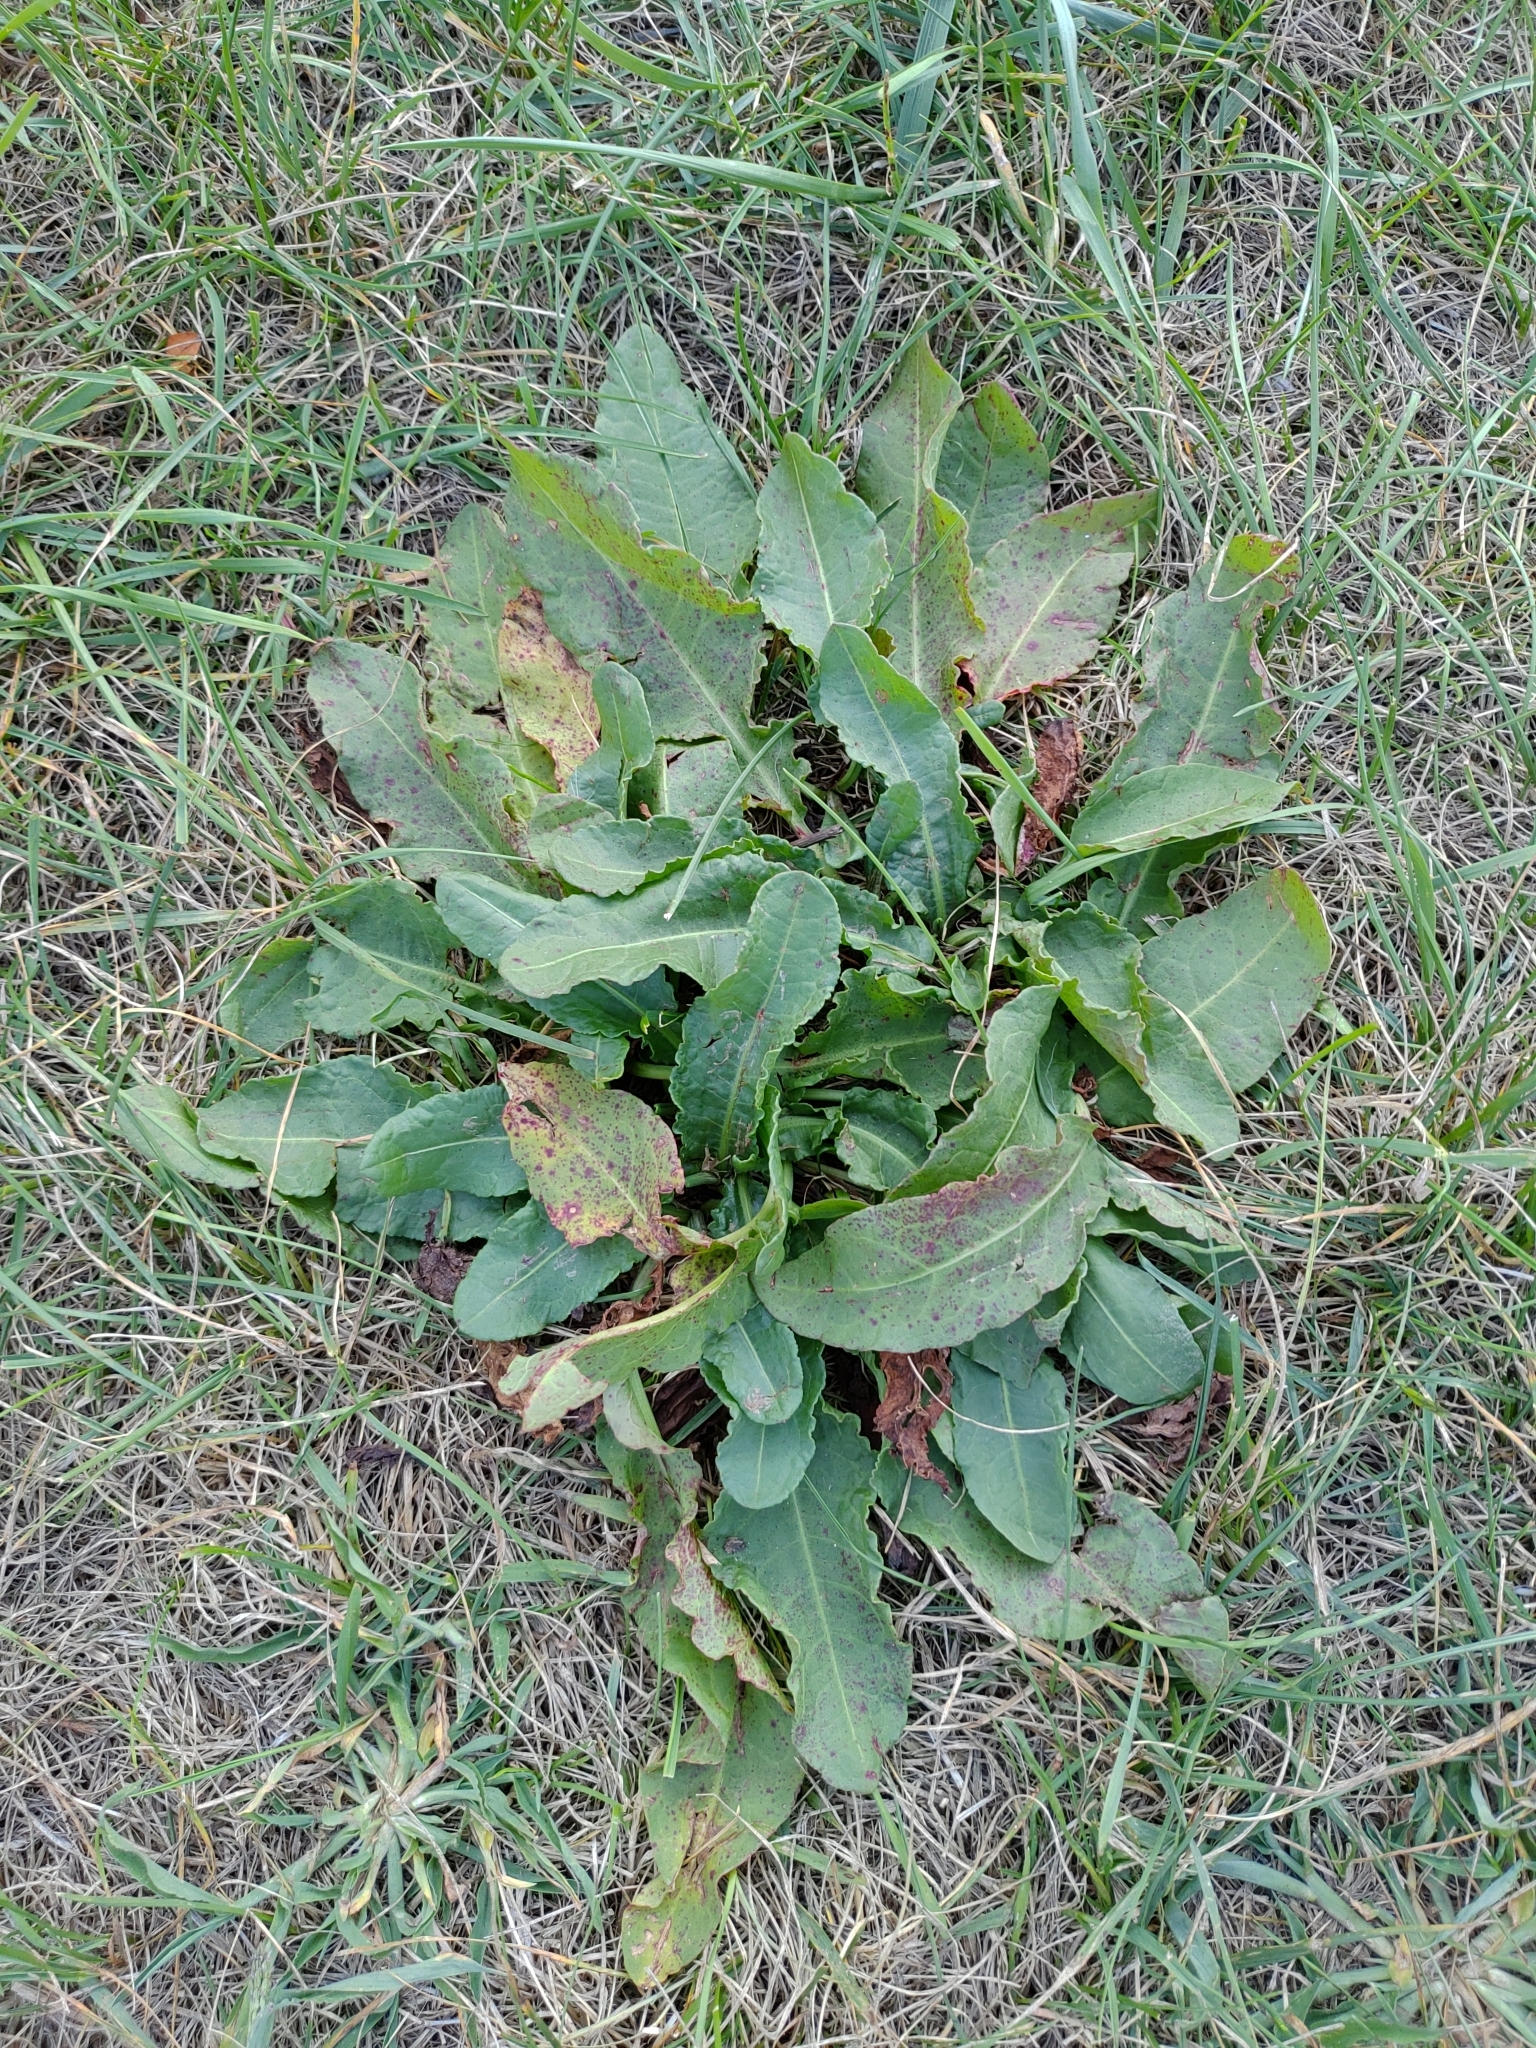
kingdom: Plantae
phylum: Tracheophyta
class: Magnoliopsida
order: Caryophyllales
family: Polygonaceae
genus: Rumex
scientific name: Rumex crispus
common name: Curled dock
